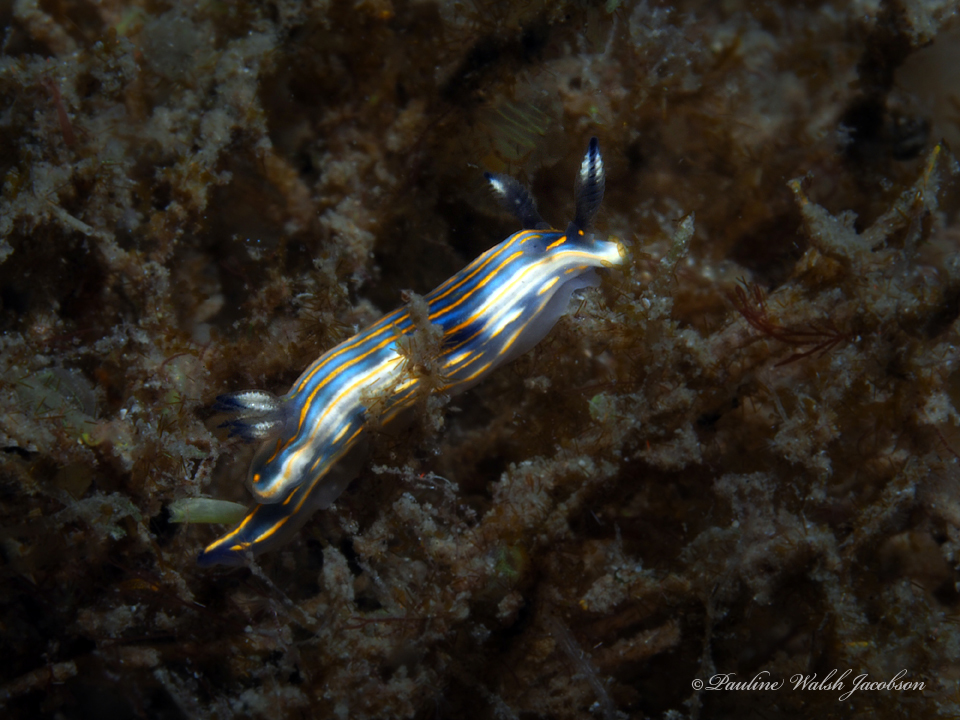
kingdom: Animalia
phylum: Mollusca
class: Gastropoda
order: Nudibranchia
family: Chromodorididae
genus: Felimare
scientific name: Felimare ruthae
